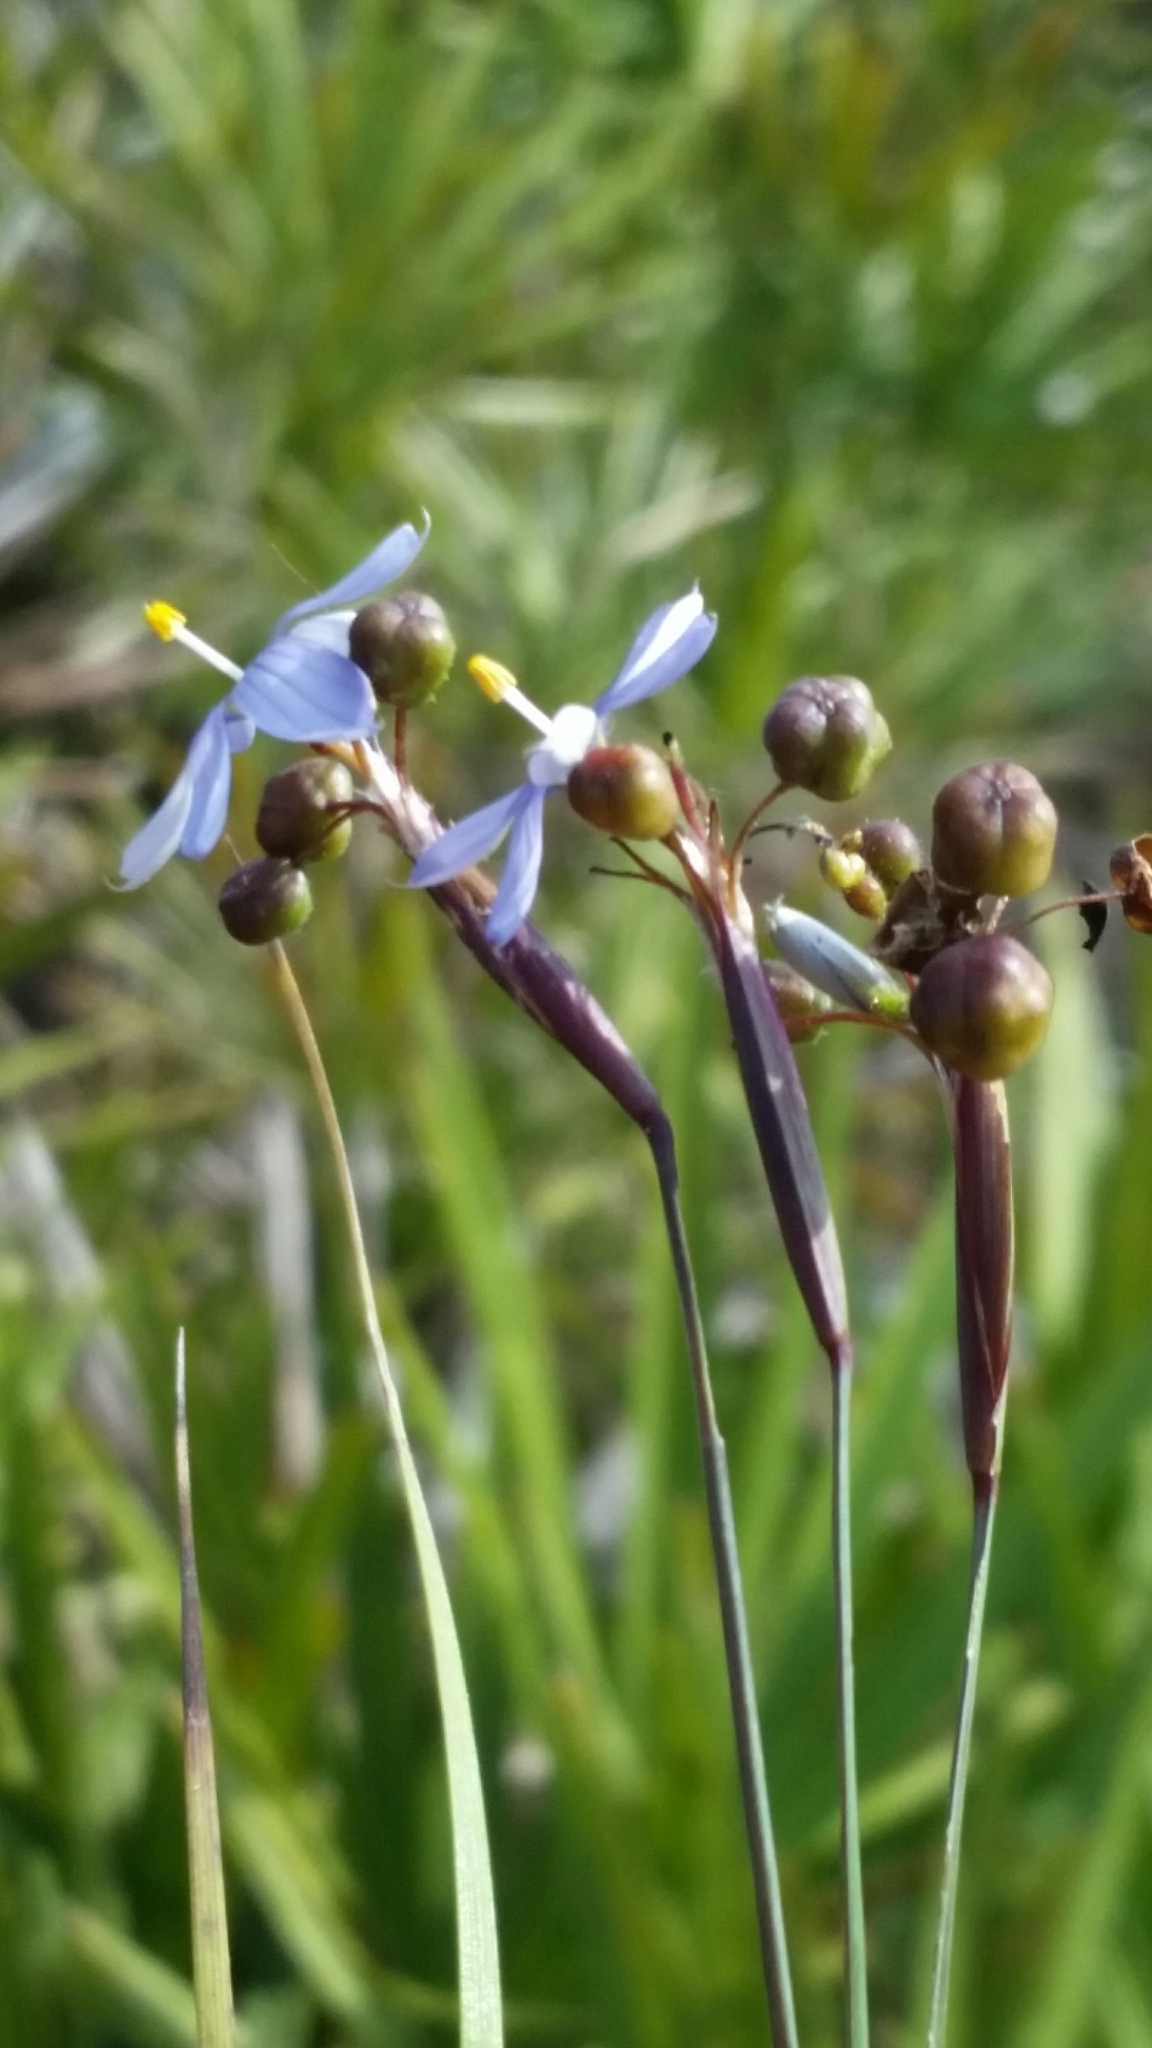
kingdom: Plantae
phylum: Tracheophyta
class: Liliopsida
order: Asparagales
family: Iridaceae
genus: Sisyrinchium
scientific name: Sisyrinchium nashii
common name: Nash's blue-eyed-grass
